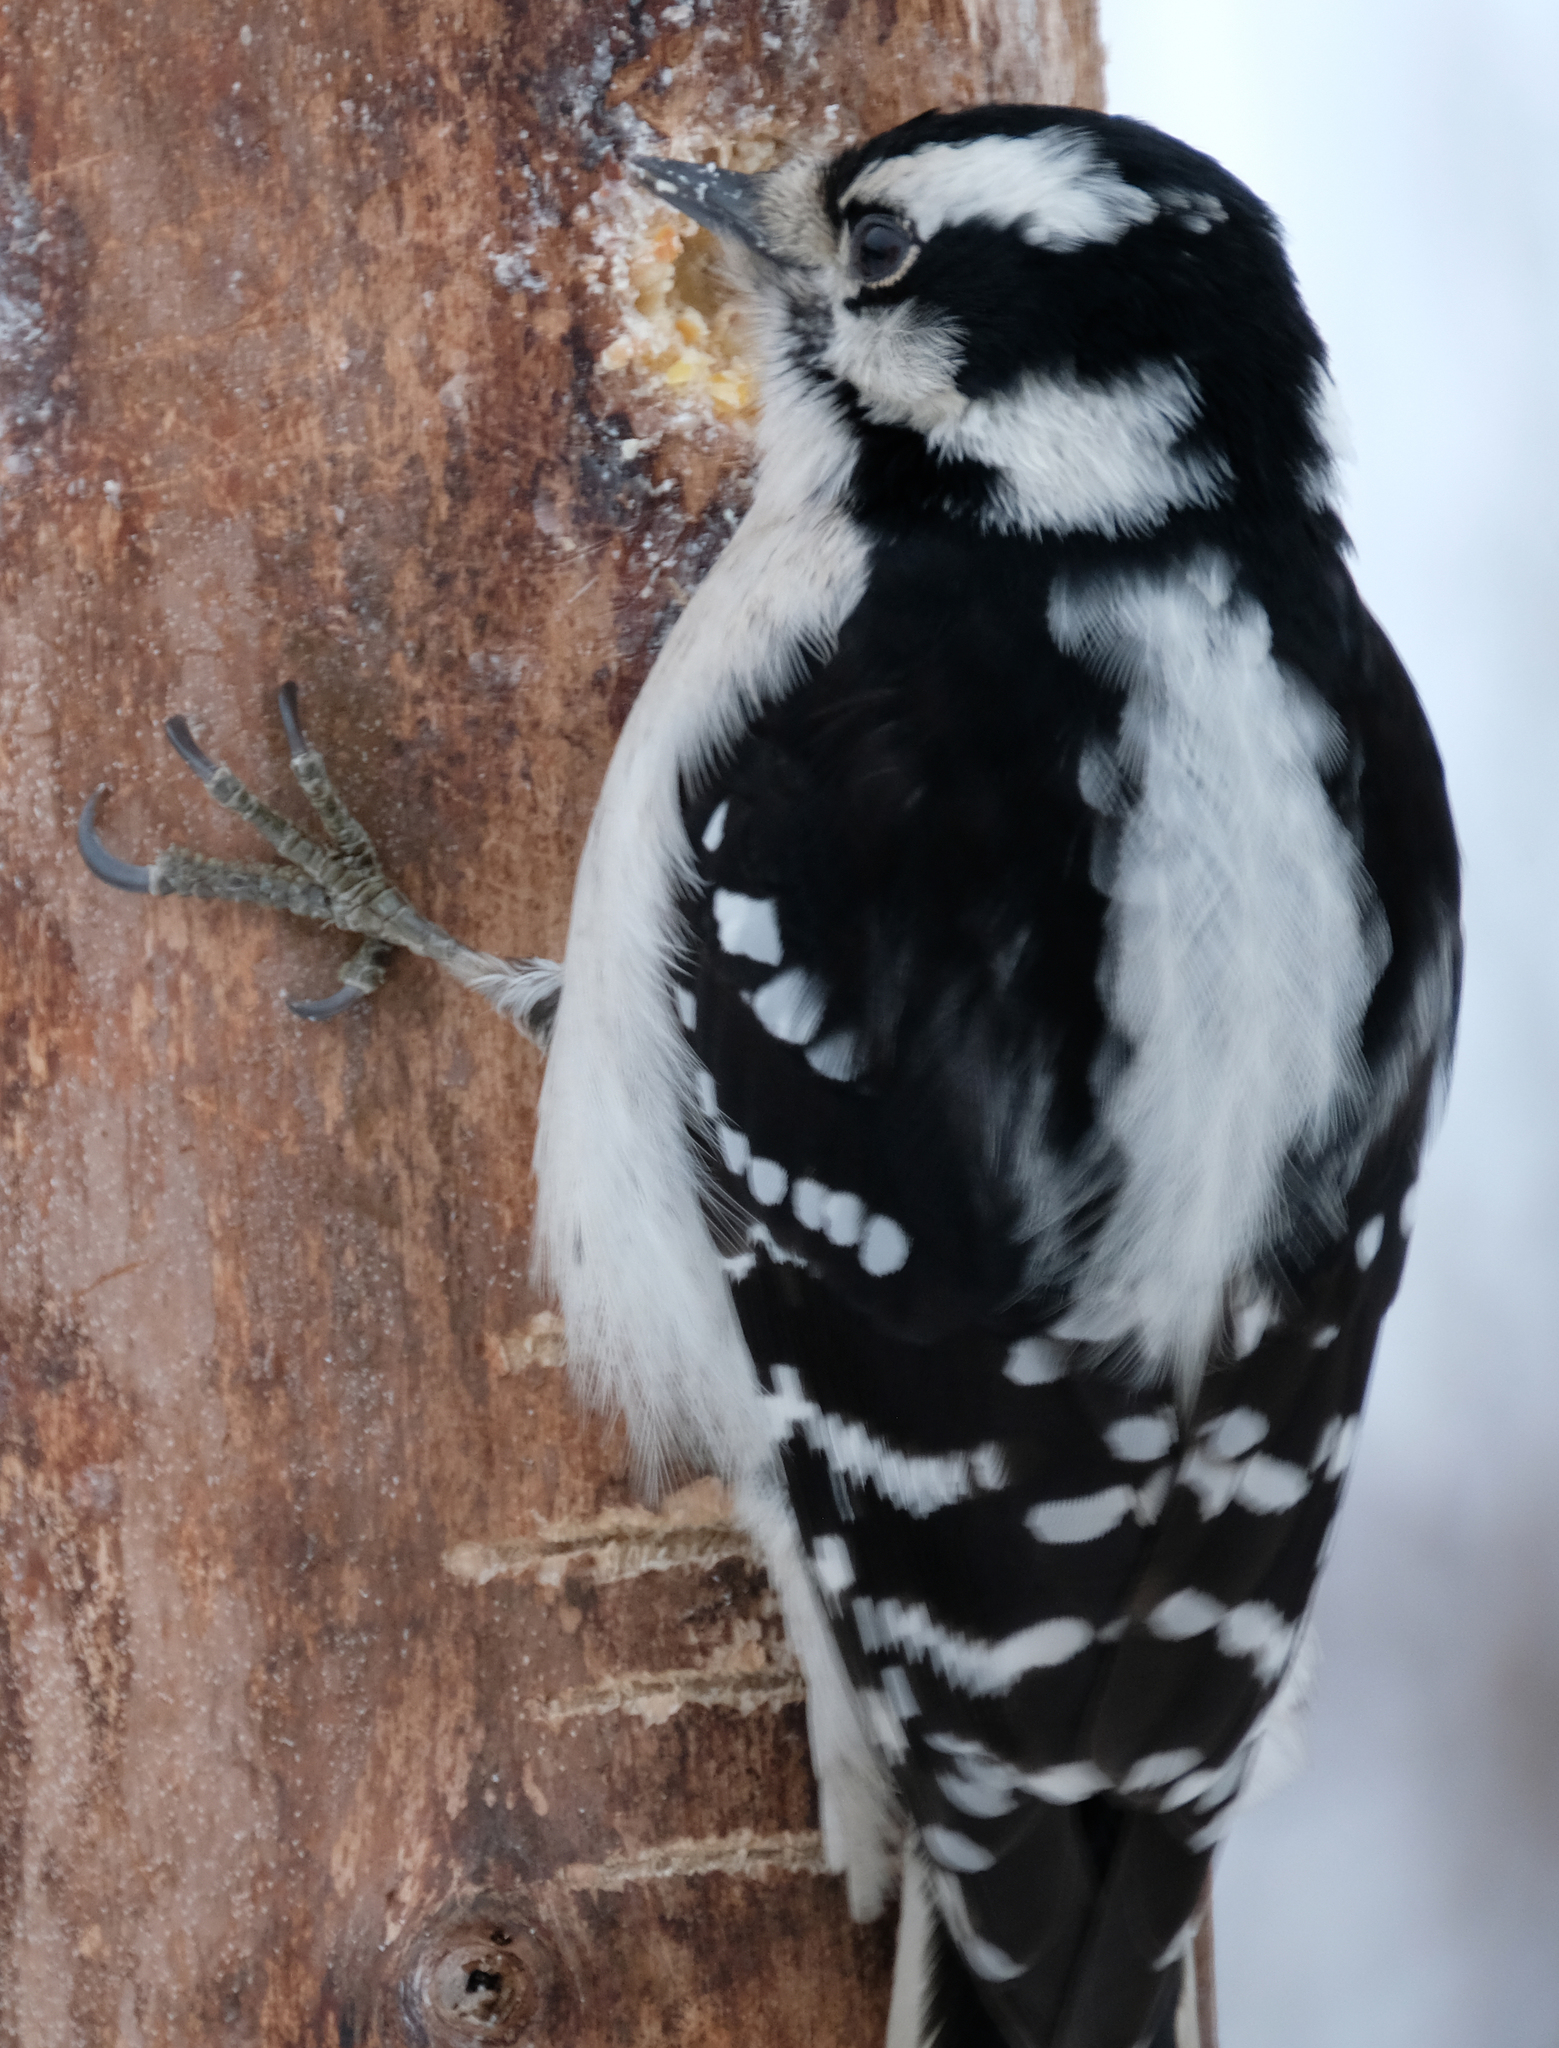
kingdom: Animalia
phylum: Chordata
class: Aves
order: Piciformes
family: Picidae
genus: Dryobates
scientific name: Dryobates pubescens
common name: Downy woodpecker
